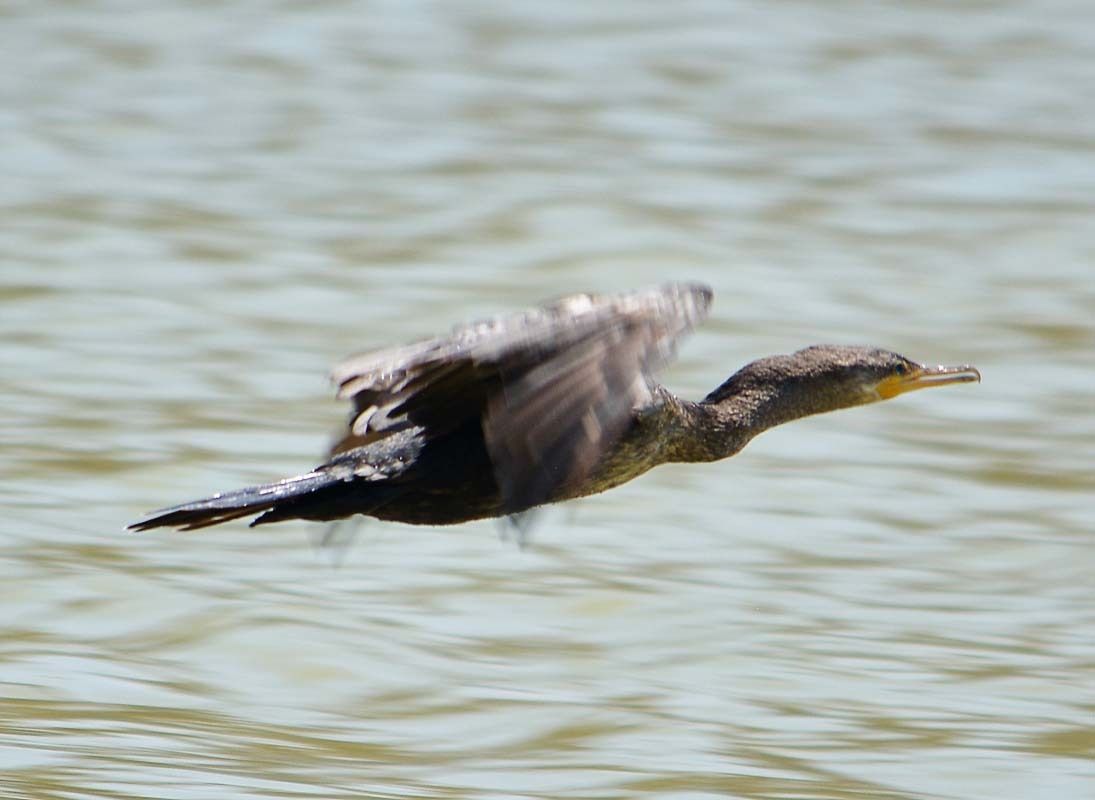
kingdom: Animalia
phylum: Chordata
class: Aves
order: Suliformes
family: Phalacrocoracidae
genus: Phalacrocorax
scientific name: Phalacrocorax brasilianus
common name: Neotropic cormorant
